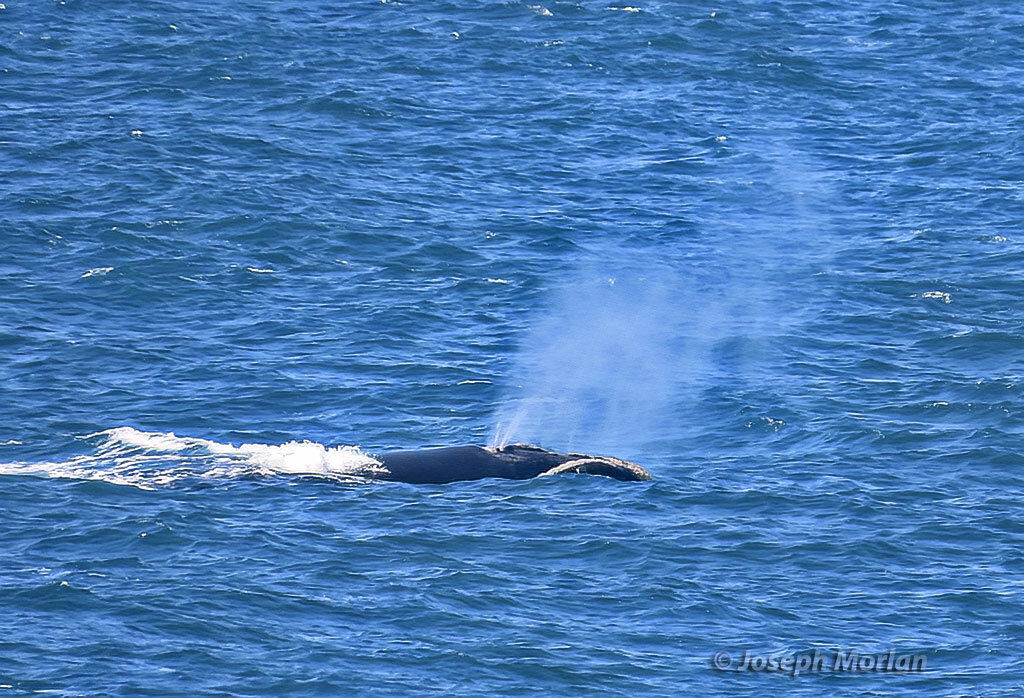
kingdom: Animalia
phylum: Chordata
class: Mammalia
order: Cetacea
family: Balaenidae
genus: Eubalaena
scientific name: Eubalaena australis
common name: Southern right whale
